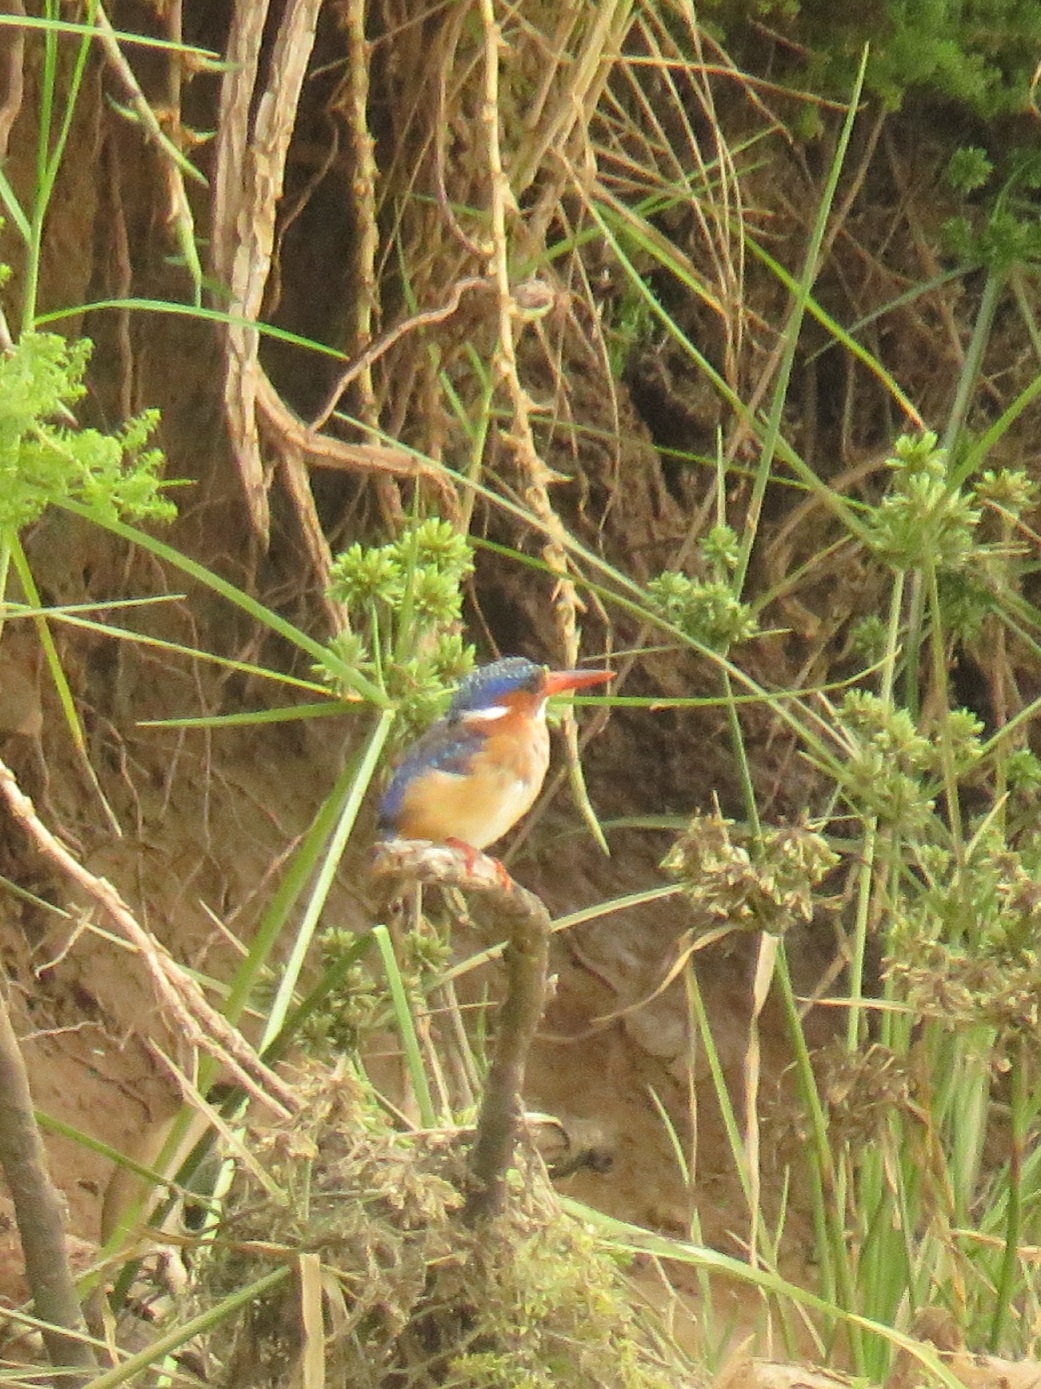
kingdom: Animalia
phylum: Chordata
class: Aves
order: Coraciiformes
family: Alcedinidae
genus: Corythornis
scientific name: Corythornis cristatus
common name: Malachite kingfisher
